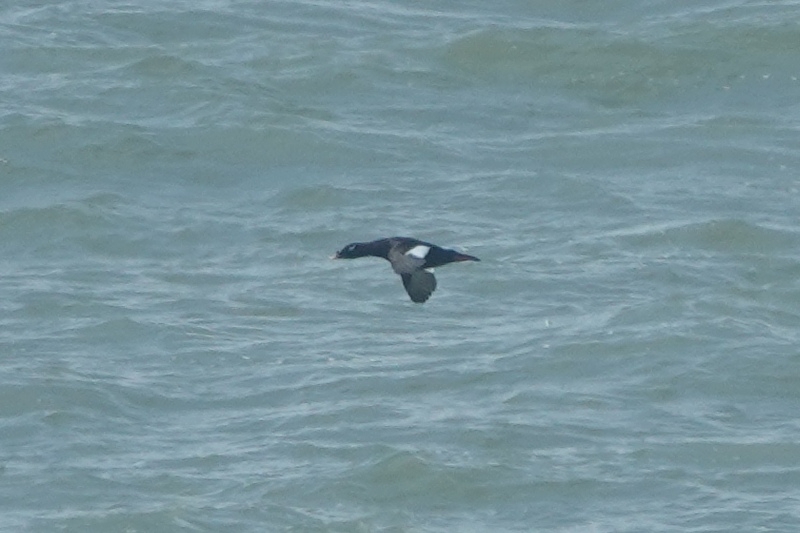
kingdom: Animalia
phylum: Chordata
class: Aves
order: Anseriformes
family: Anatidae
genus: Melanitta
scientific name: Melanitta stejnegeri
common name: Stejneger's scoter
